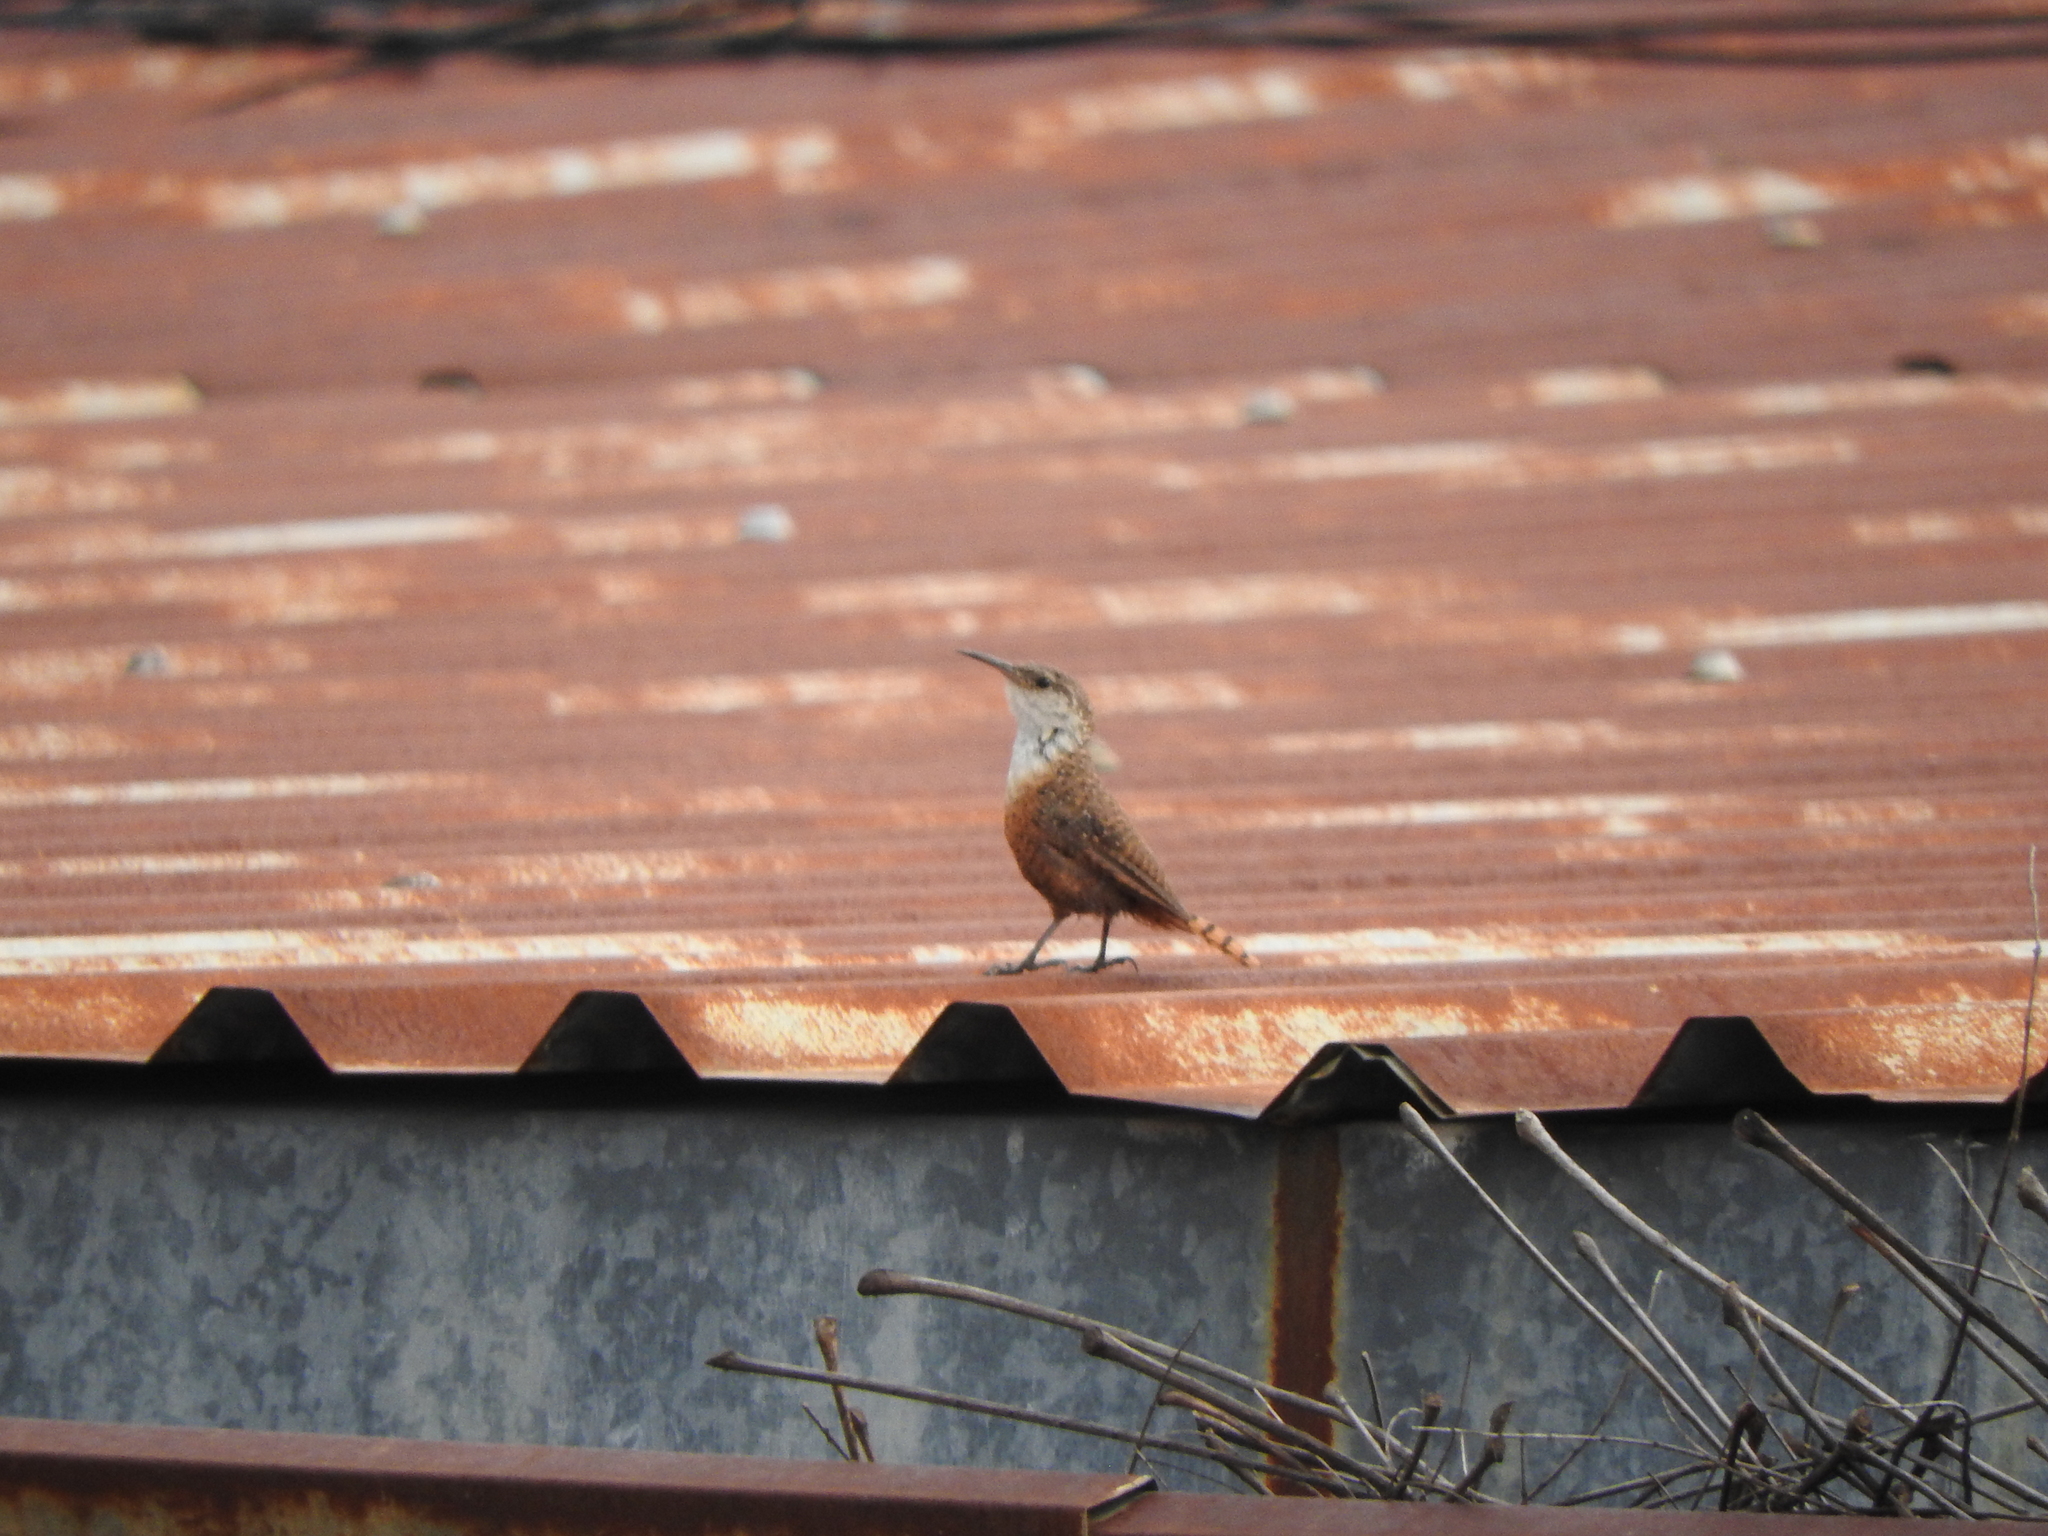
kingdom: Animalia
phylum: Chordata
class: Aves
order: Passeriformes
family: Troglodytidae
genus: Catherpes
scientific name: Catherpes mexicanus
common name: Canyon wren
